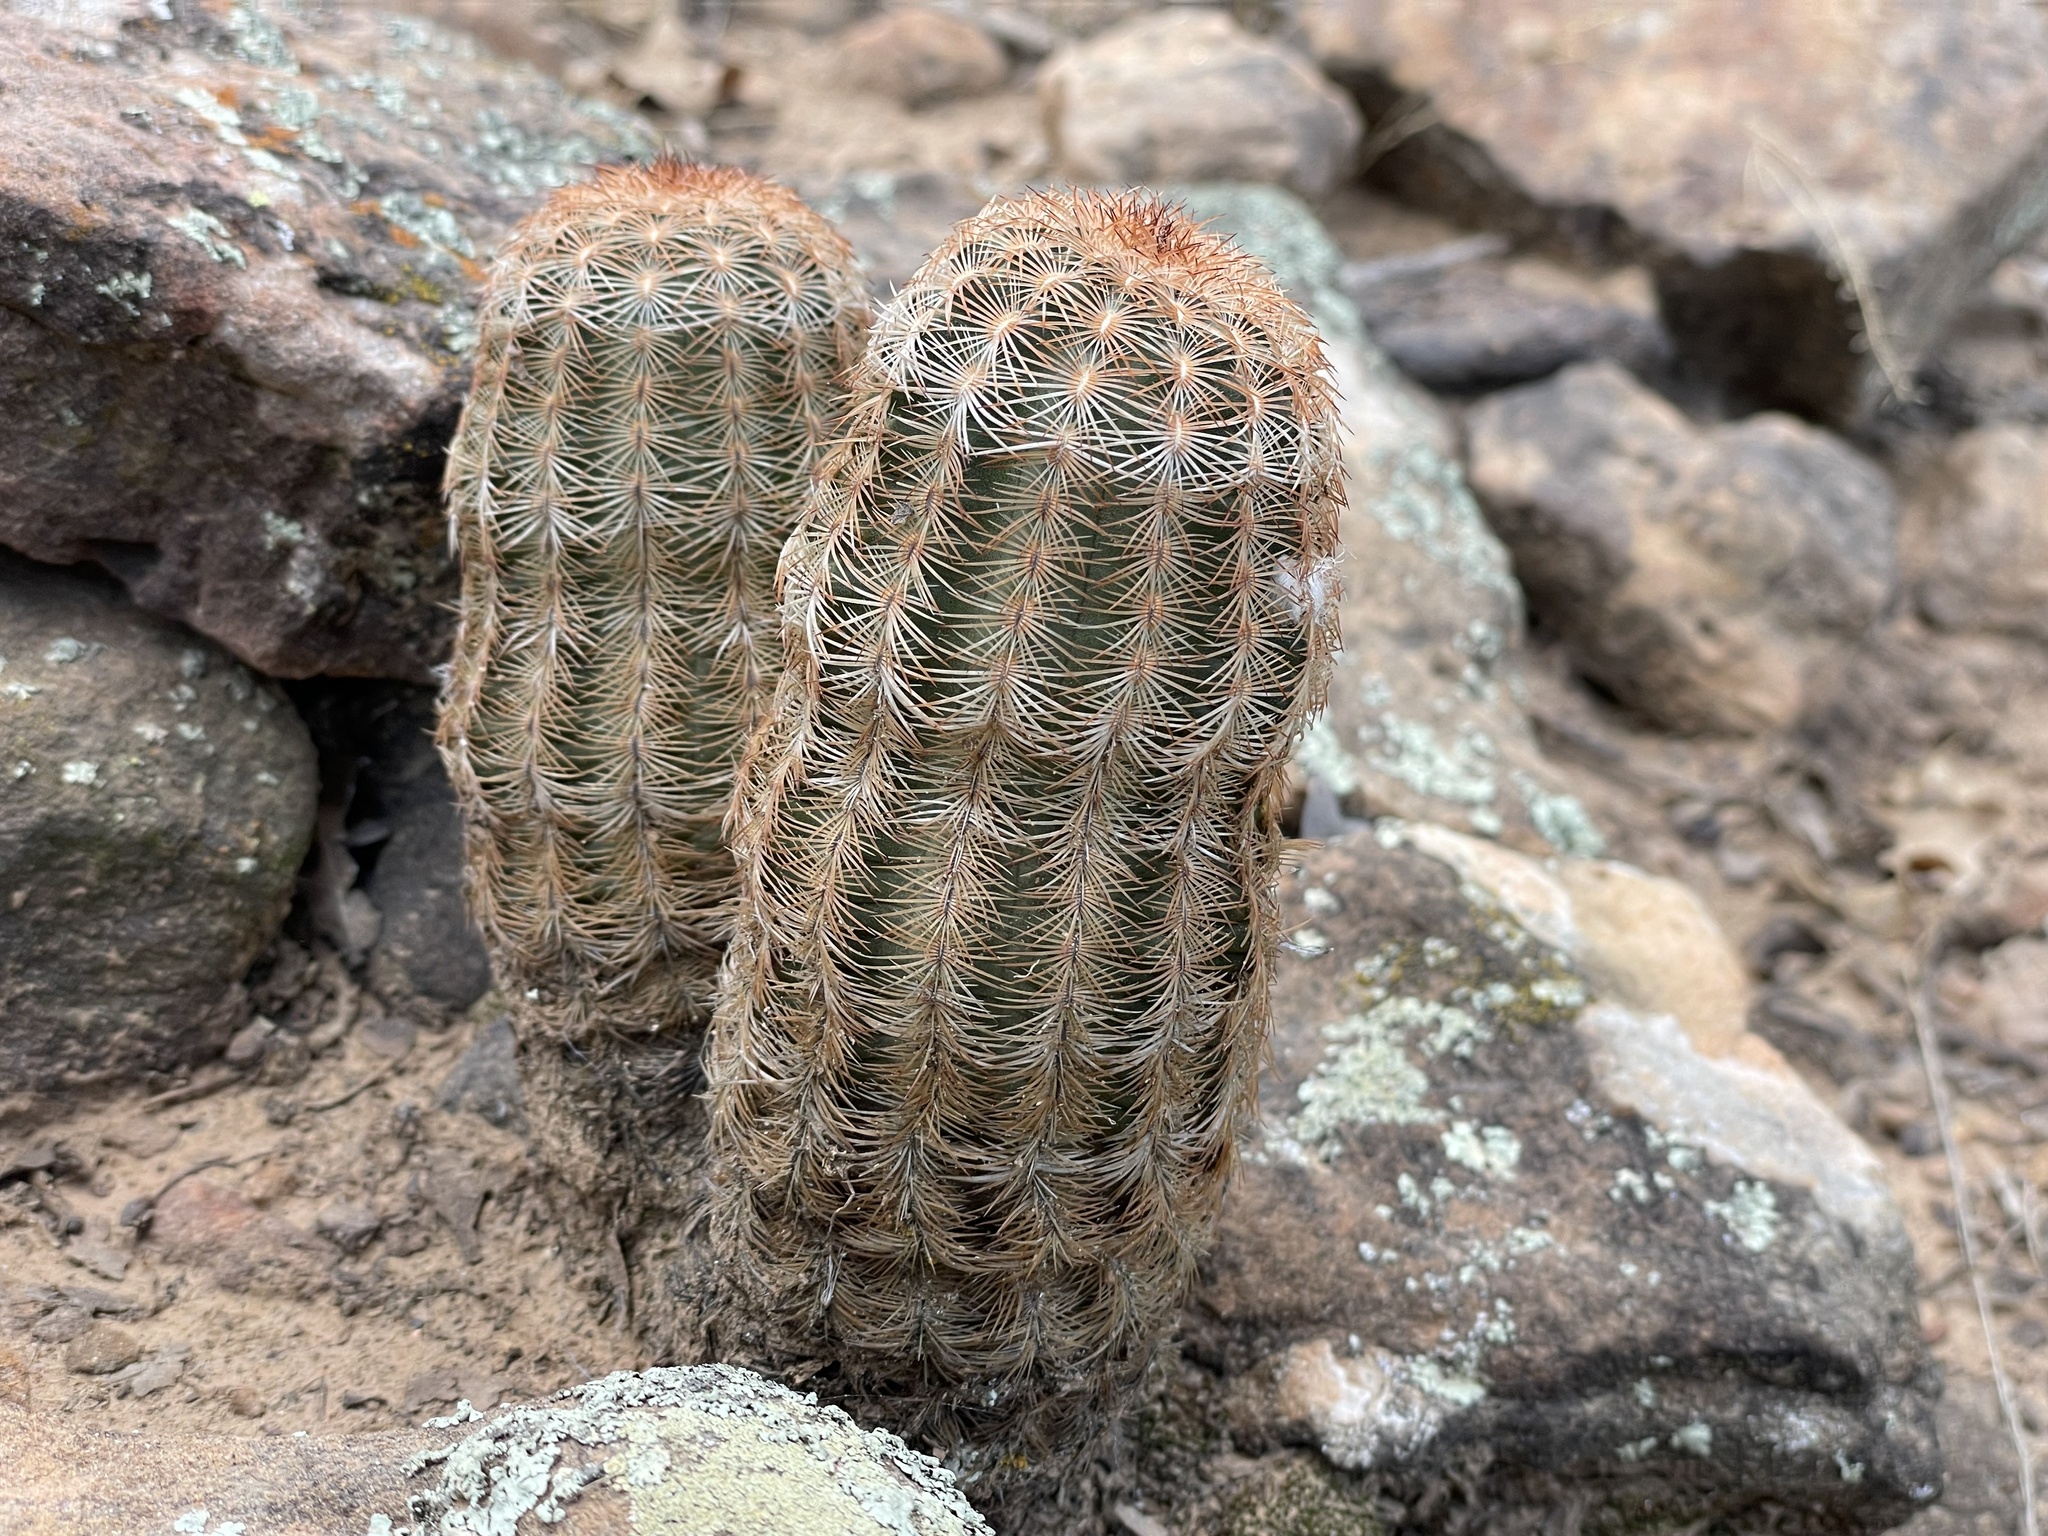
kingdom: Plantae
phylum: Tracheophyta
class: Magnoliopsida
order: Caryophyllales
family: Cactaceae
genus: Echinocereus
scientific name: Echinocereus reichenbachii
